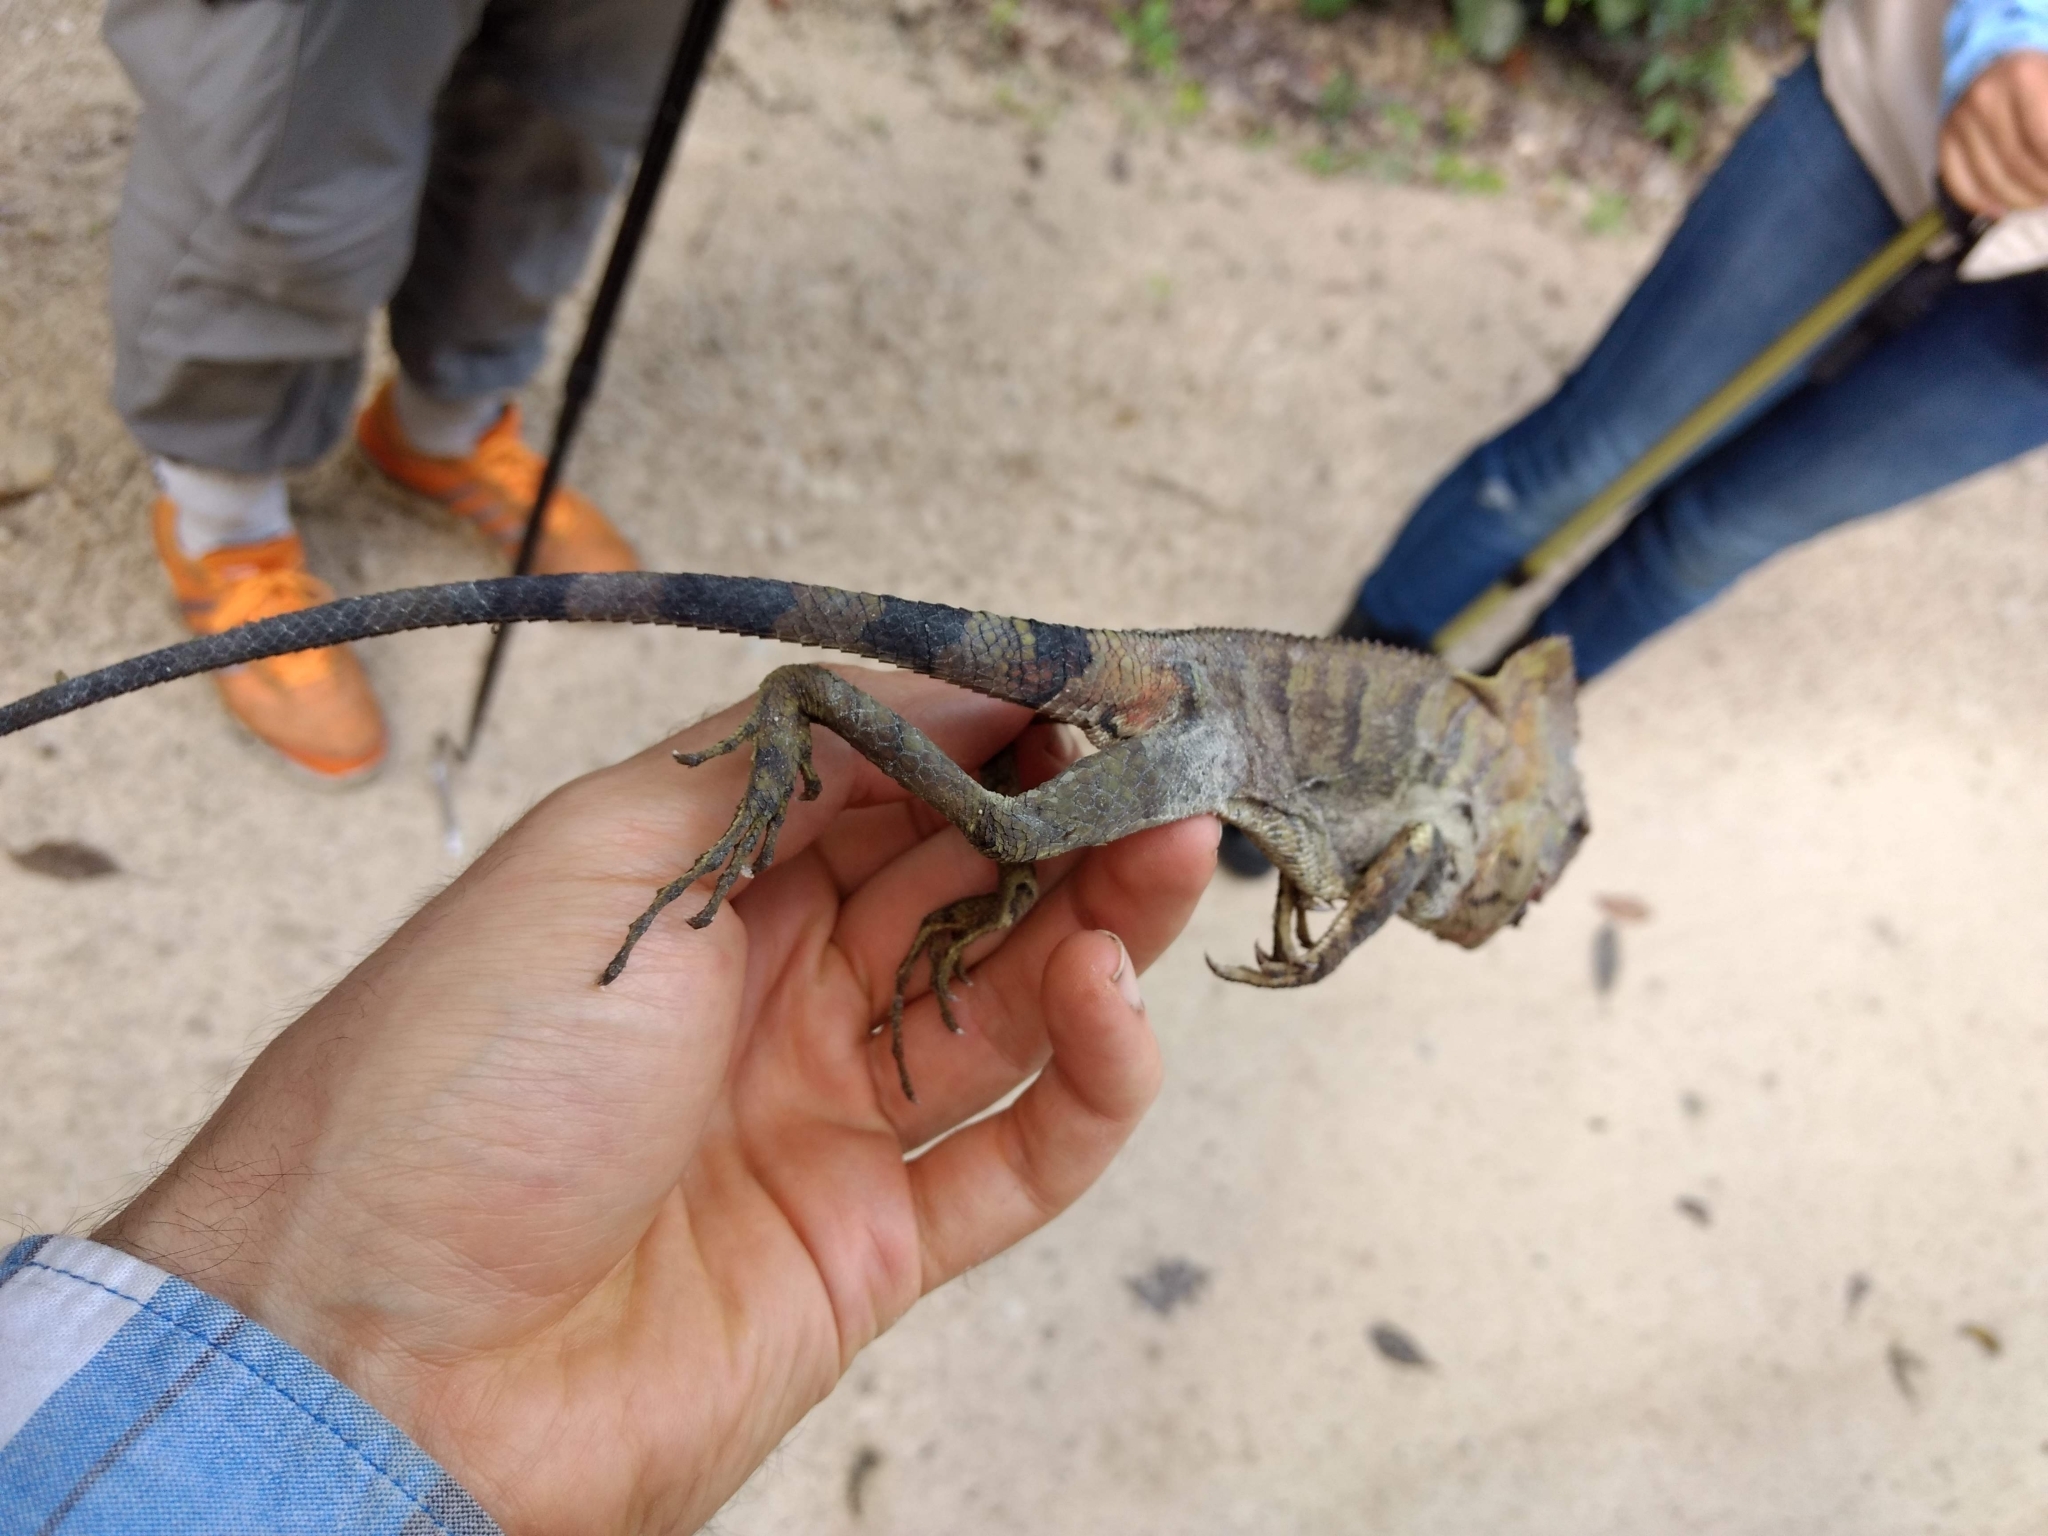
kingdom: Animalia
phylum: Chordata
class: Squamata
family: Corytophanidae
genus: Corytophanes
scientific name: Corytophanes cristatus
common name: Smooth helmeted iguana
